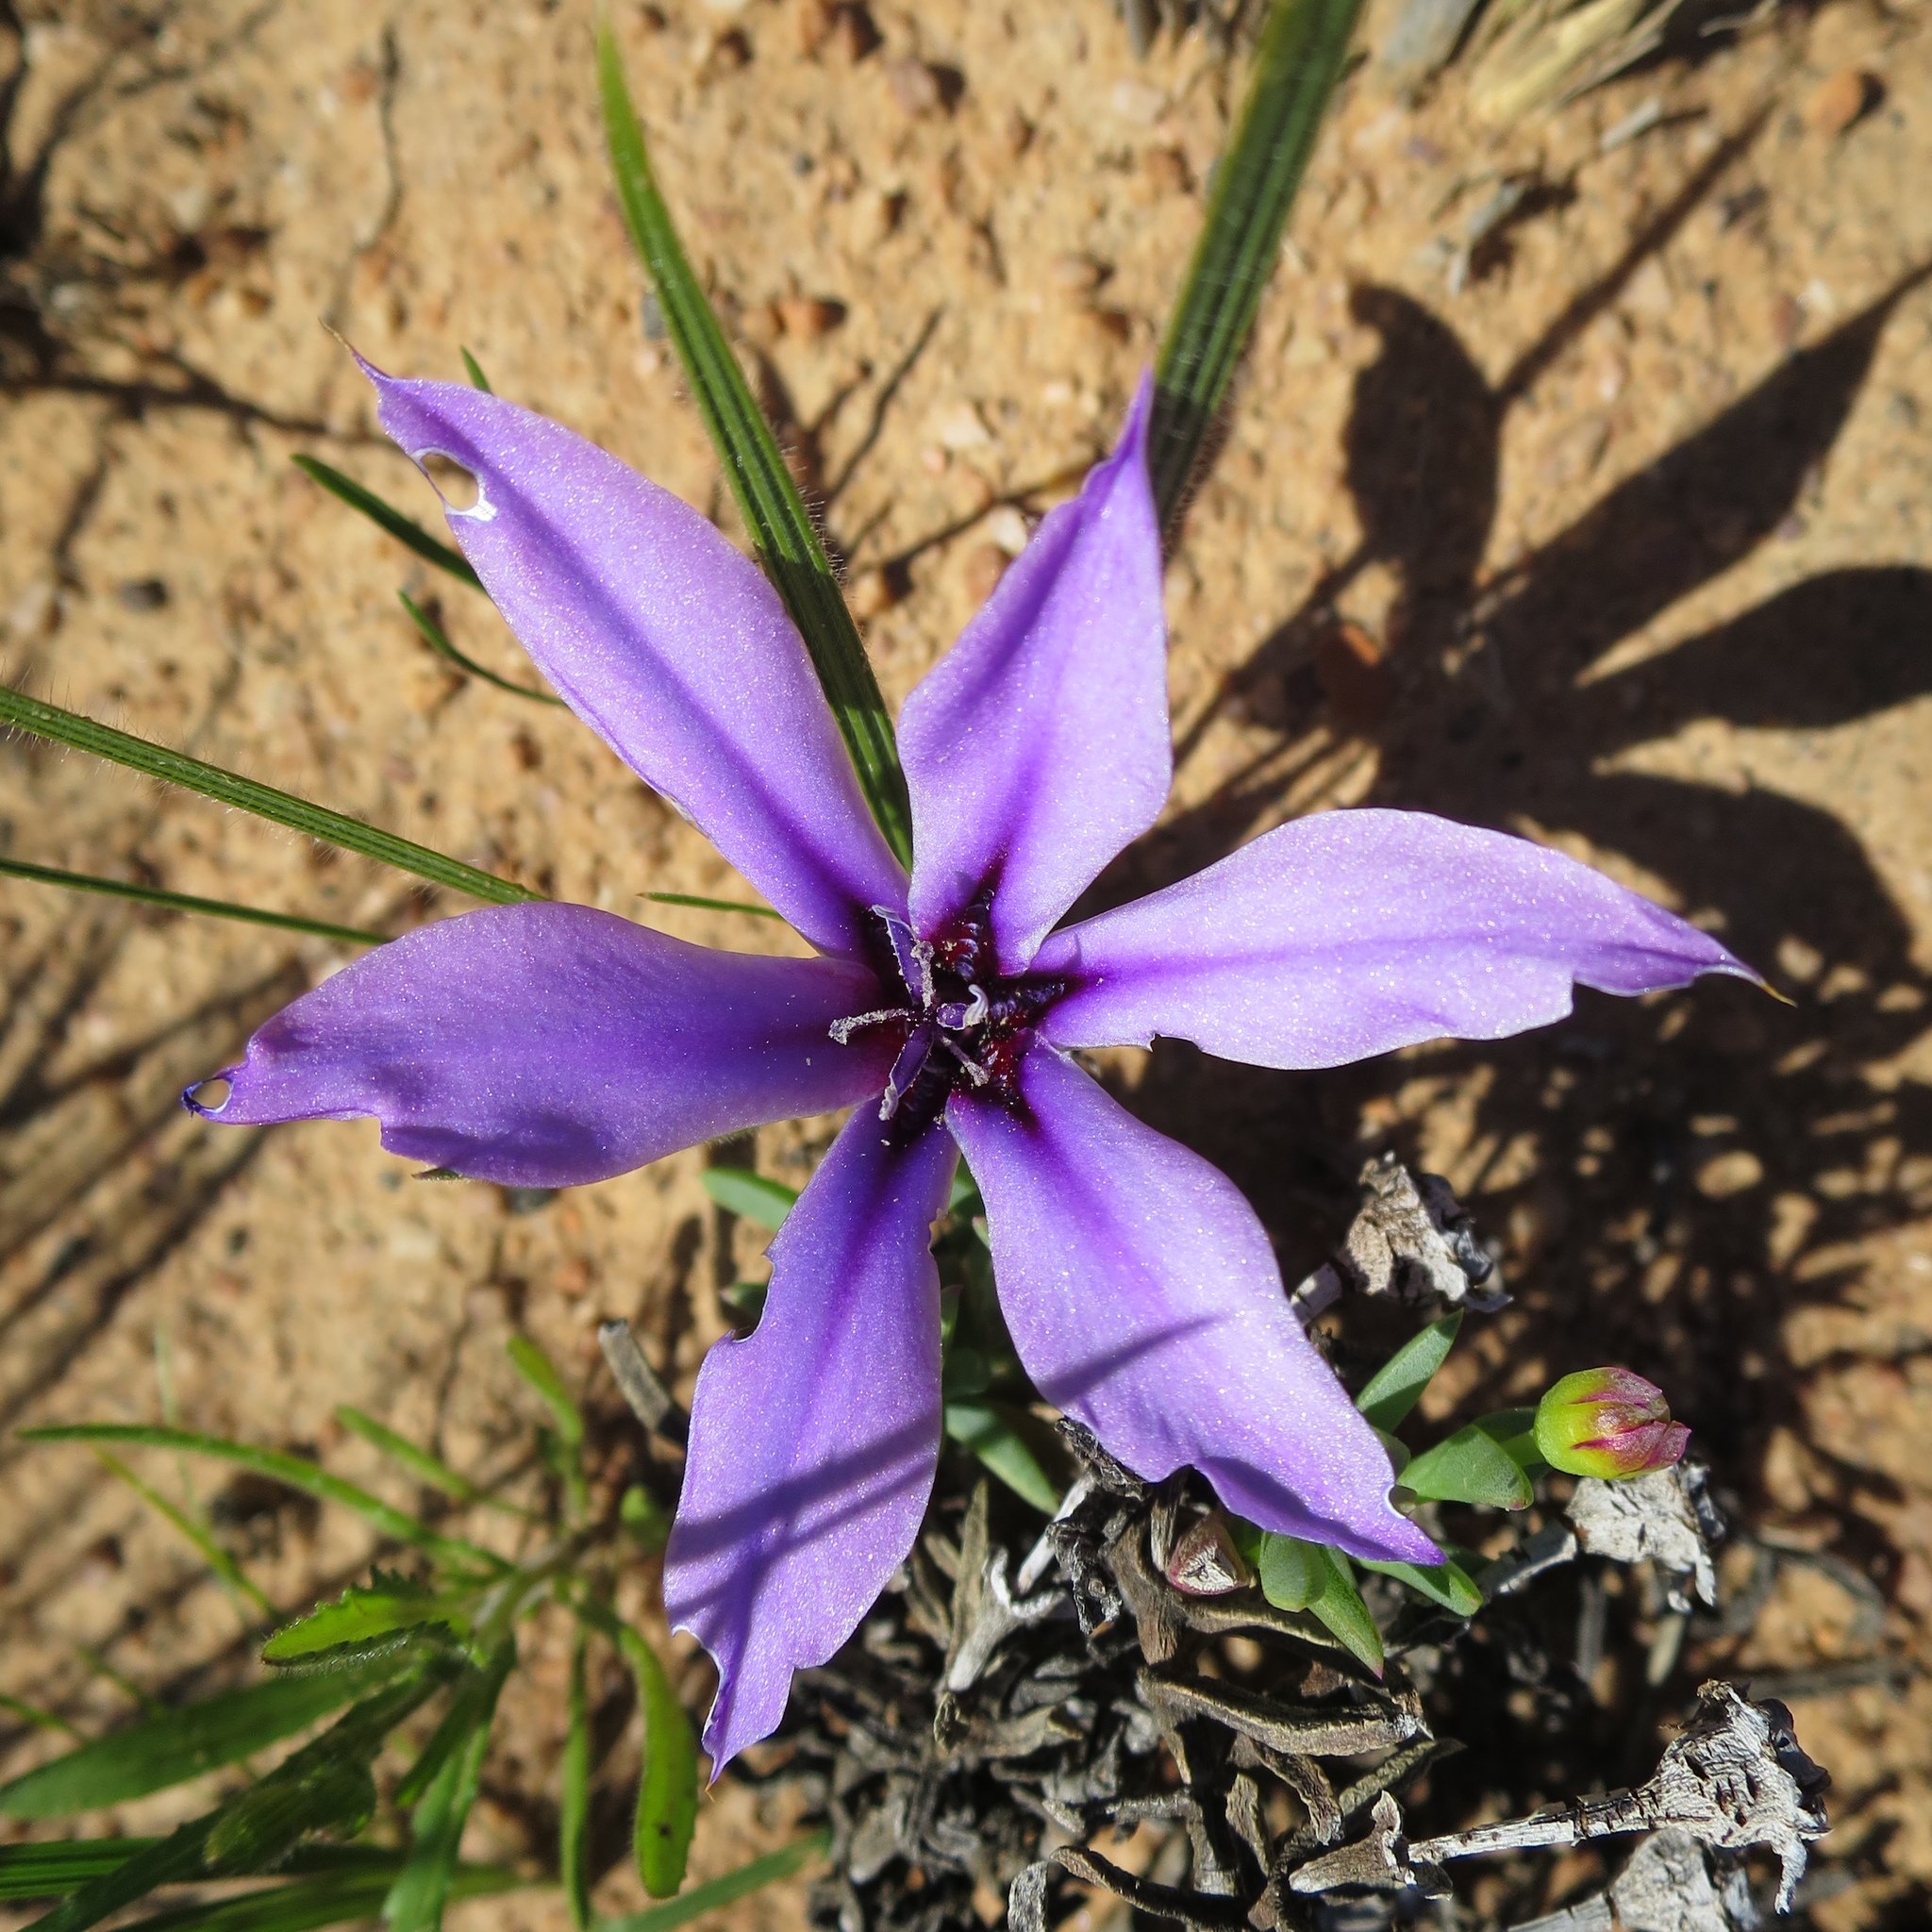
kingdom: Plantae
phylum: Tracheophyta
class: Liliopsida
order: Asparagales
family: Iridaceae
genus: Babiana
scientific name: Babiana radiata
